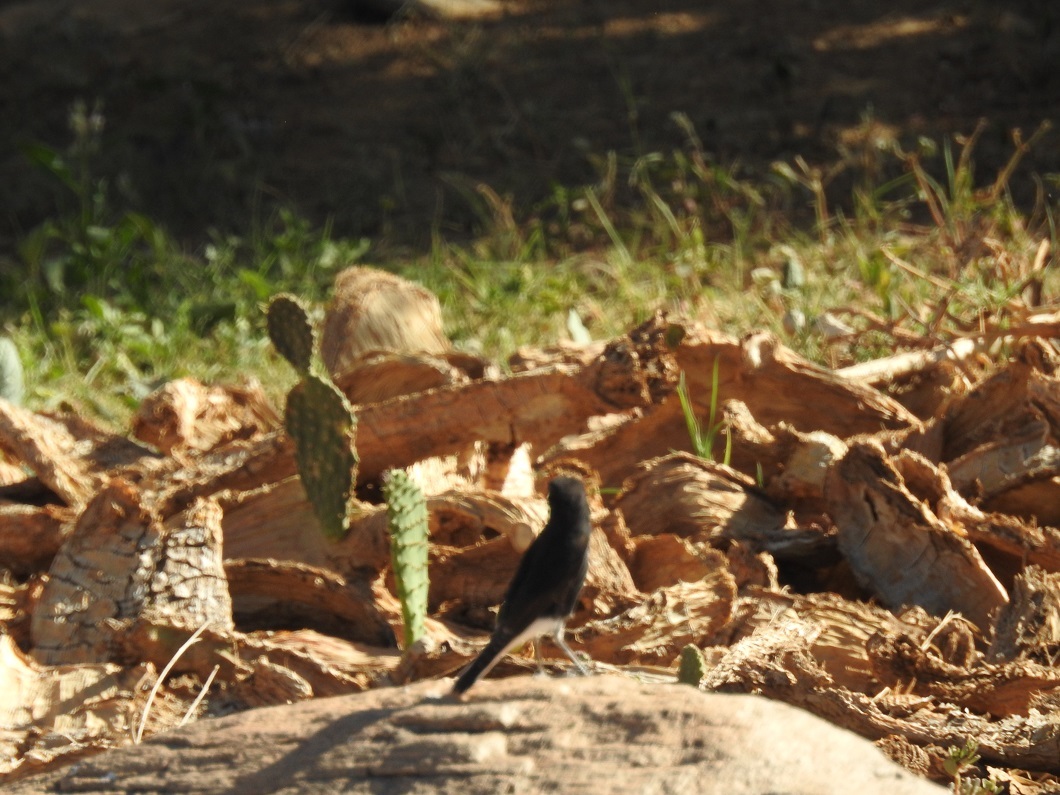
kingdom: Animalia
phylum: Chordata
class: Aves
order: Passeriformes
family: Muscicapidae
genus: Oenanthe
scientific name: Oenanthe leucopyga
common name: White-crowned wheatear
